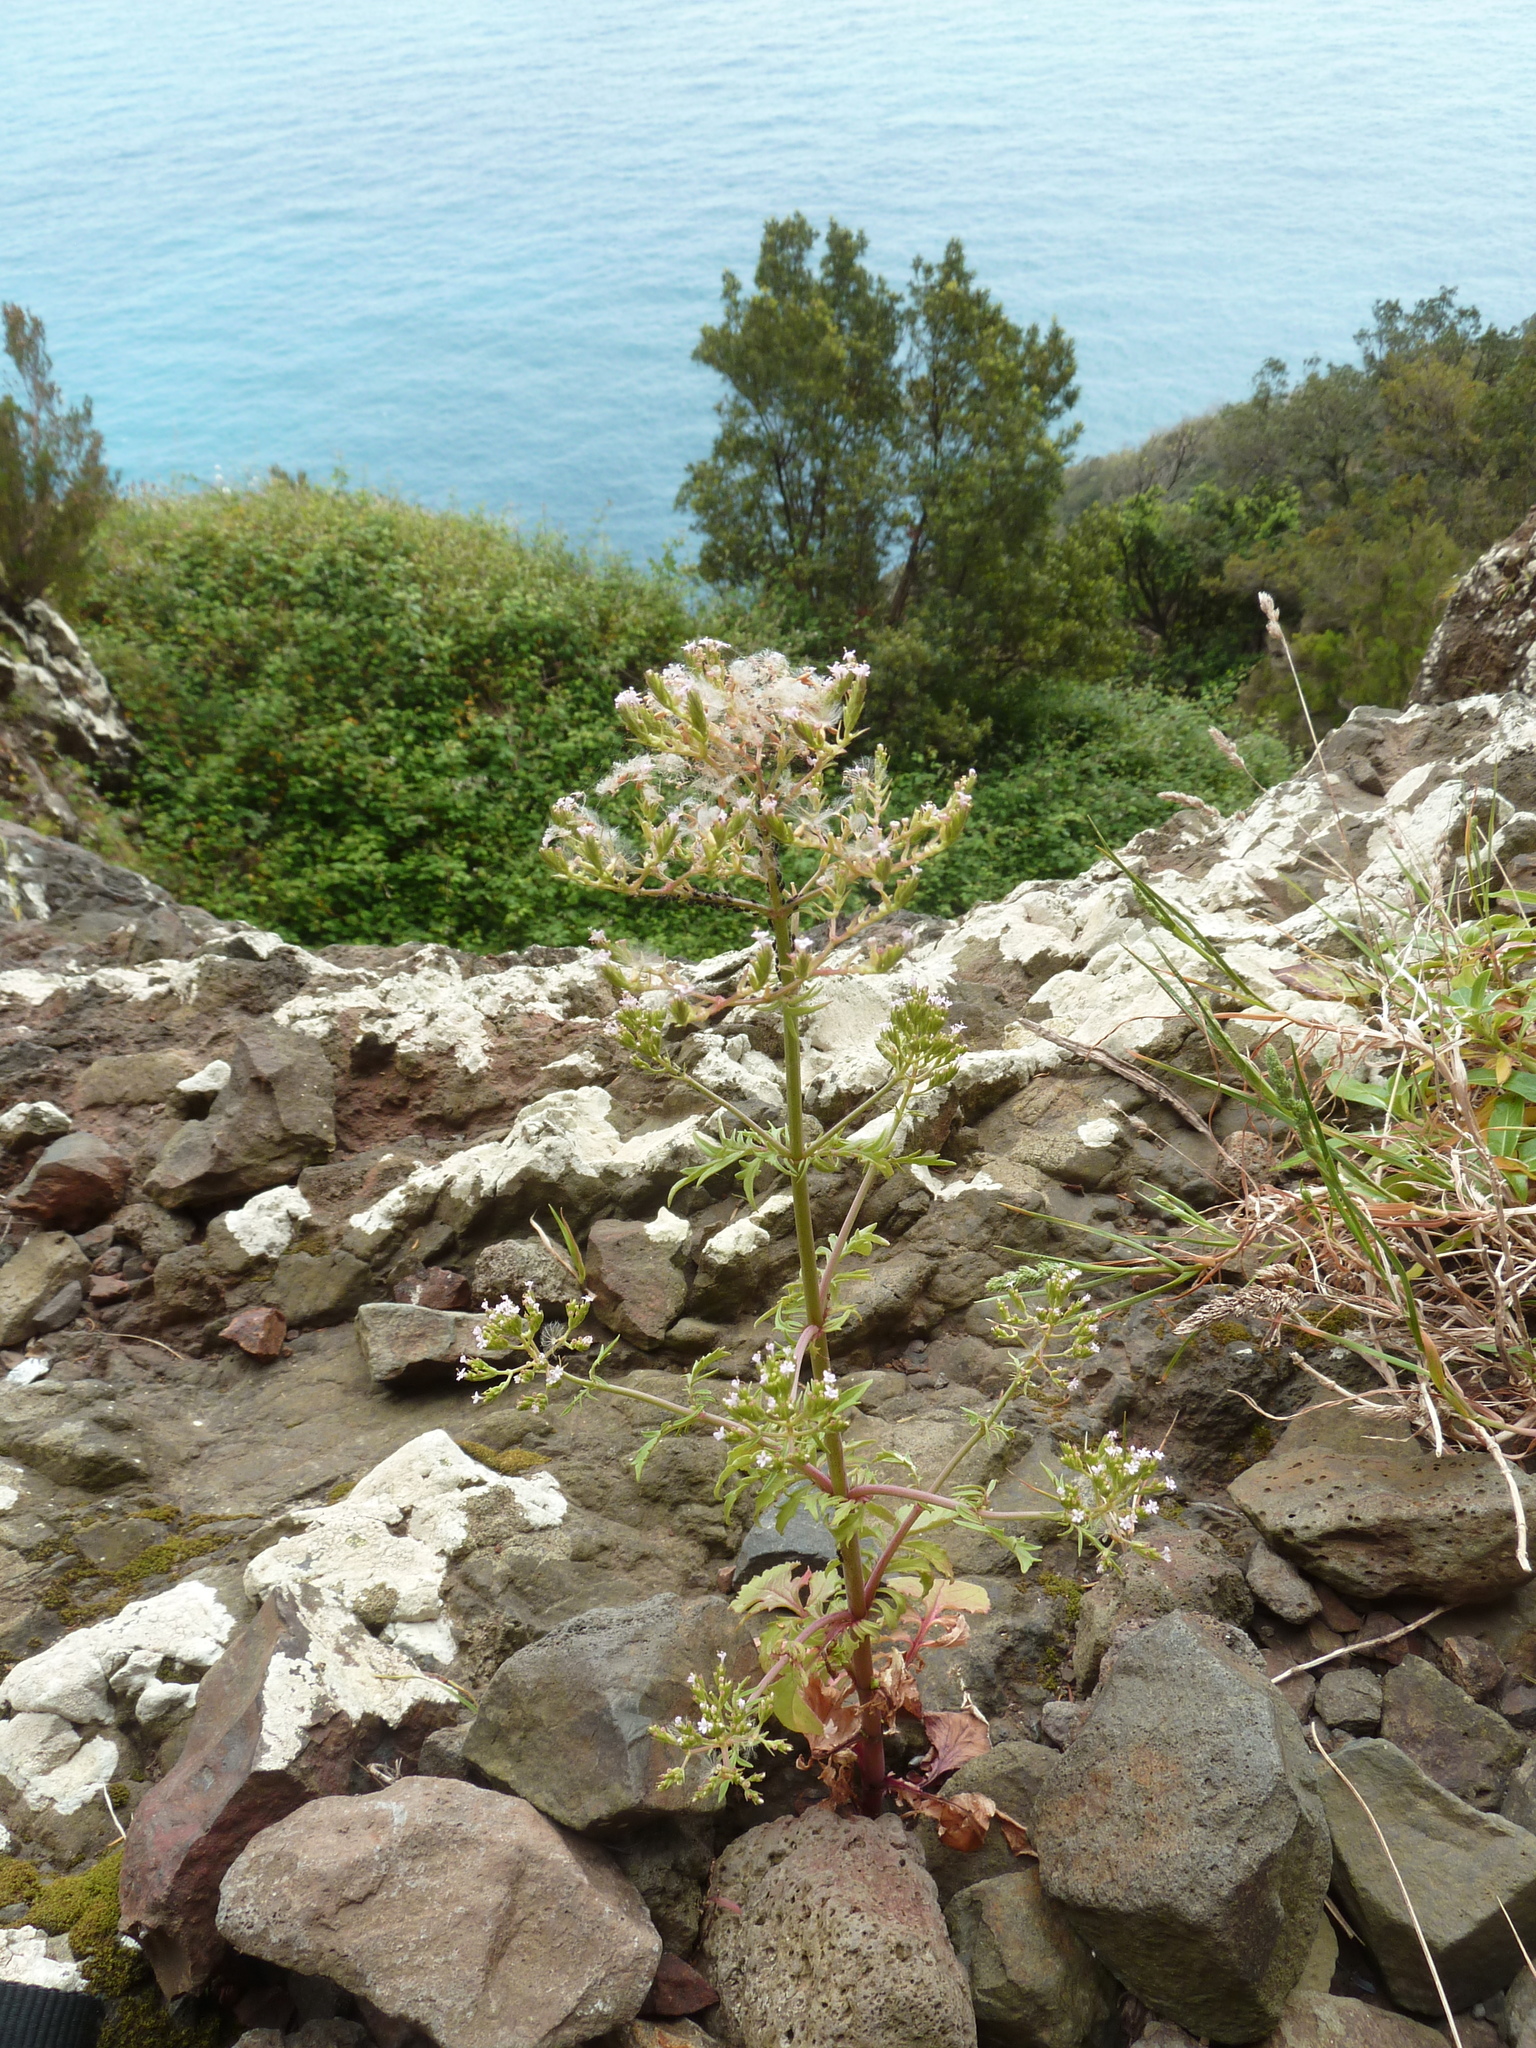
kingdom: Plantae
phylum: Tracheophyta
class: Magnoliopsida
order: Dipsacales
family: Caprifoliaceae
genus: Centranthus
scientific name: Centranthus calcitrapae
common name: Annual valerian
